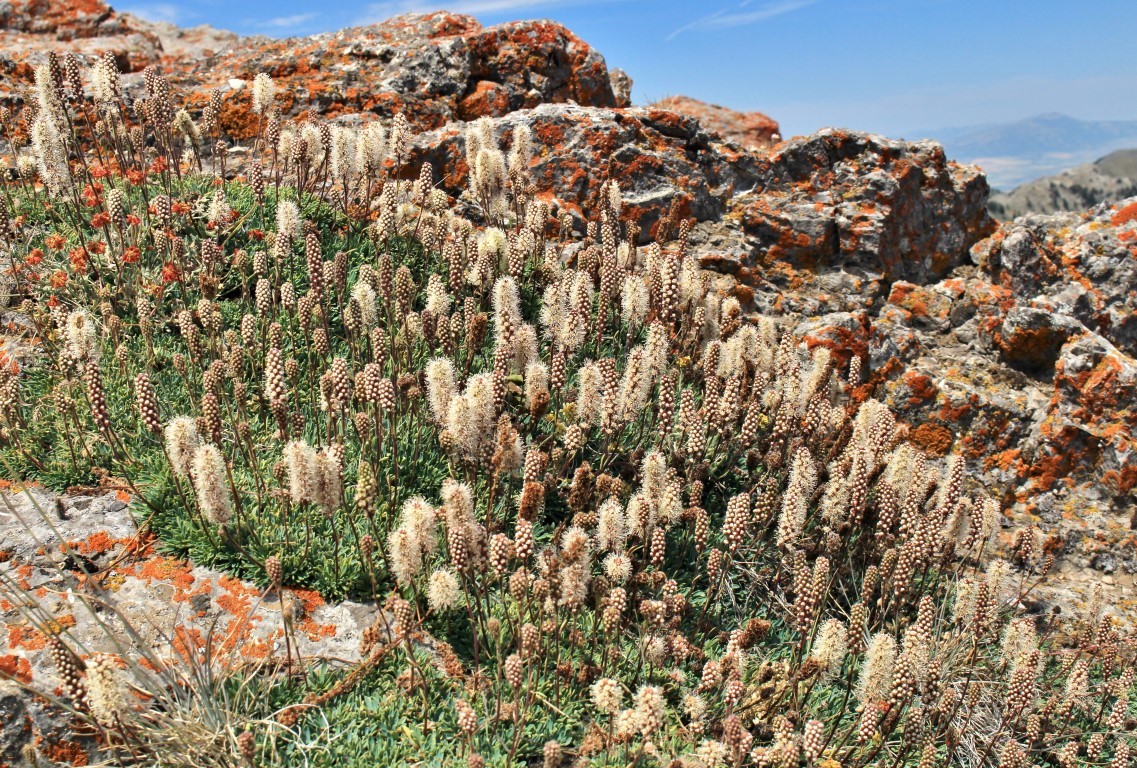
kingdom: Plantae
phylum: Tracheophyta
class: Magnoliopsida
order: Rosales
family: Rosaceae
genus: Petrophytum
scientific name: Petrophytum caespitosum
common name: Mat rockspirea
